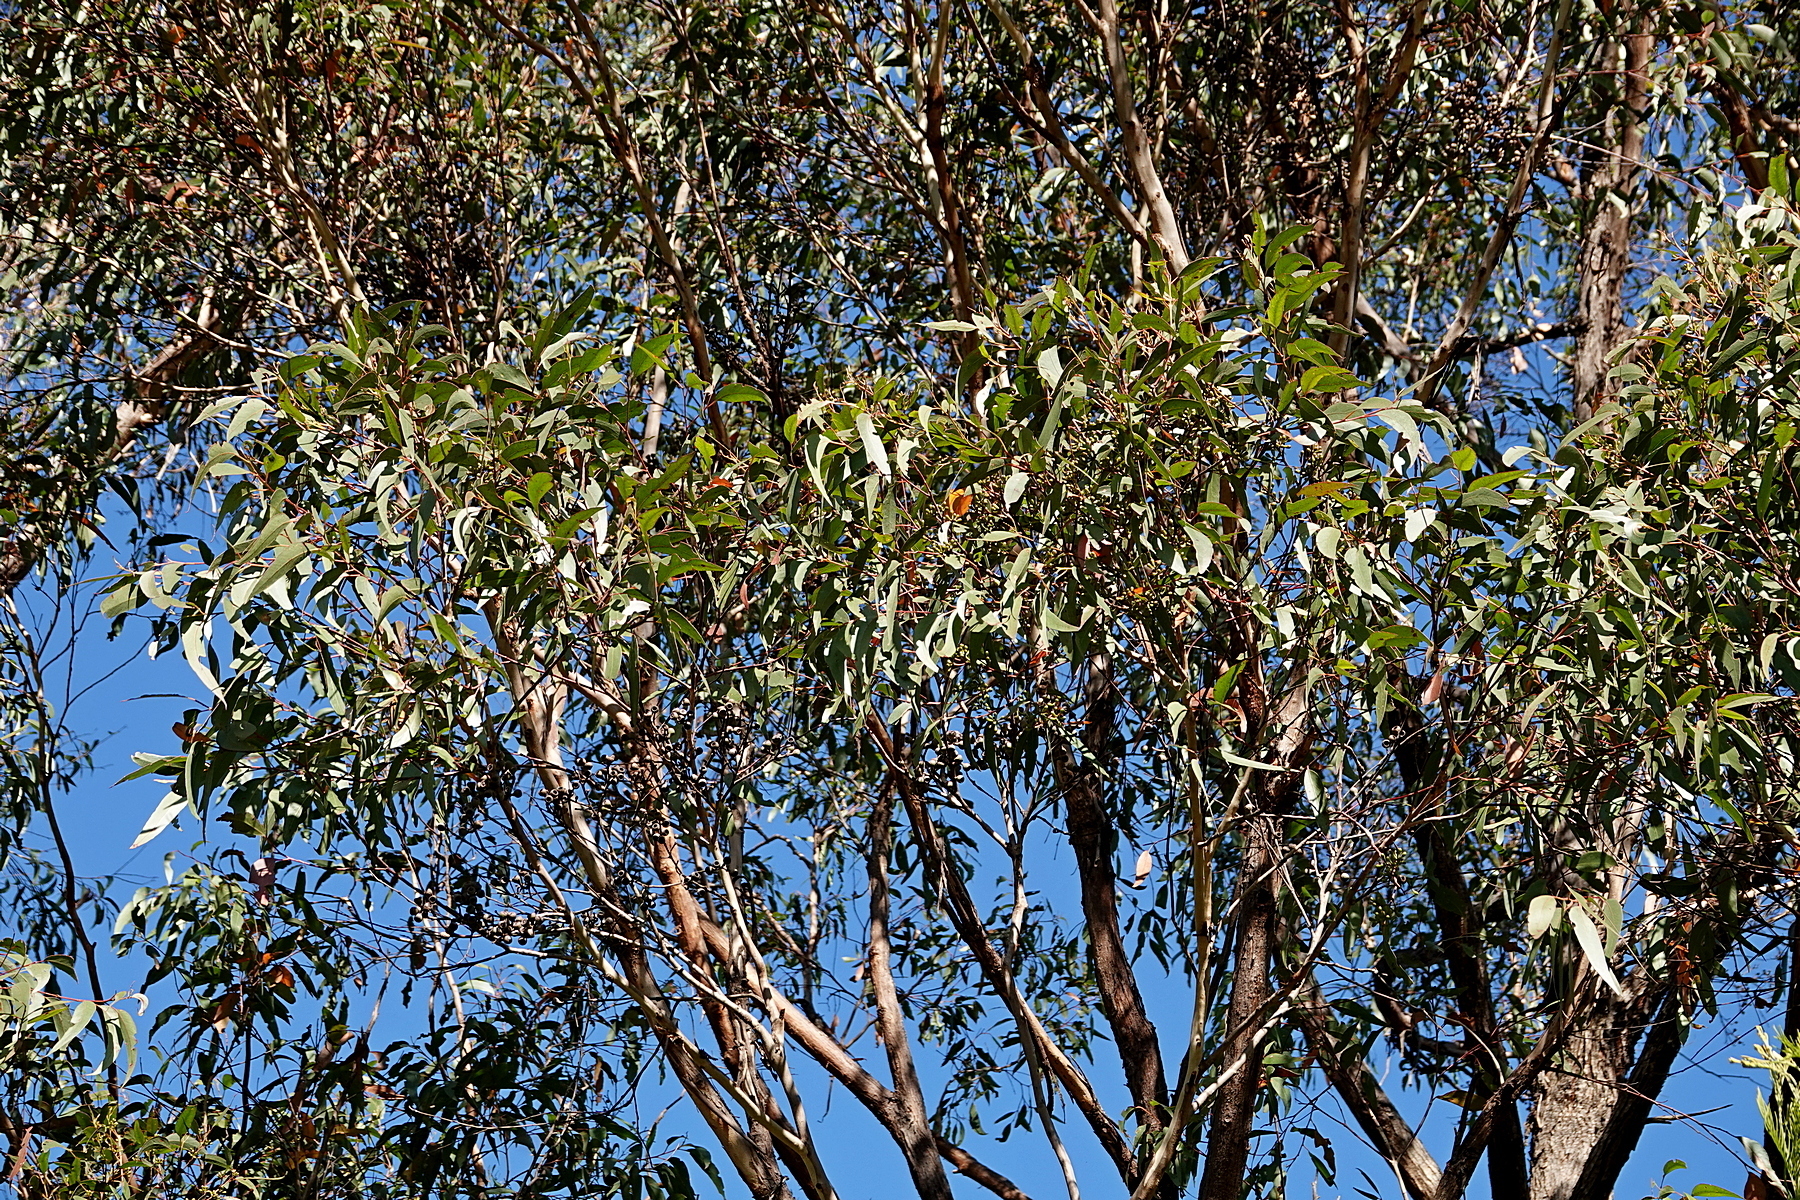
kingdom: Plantae
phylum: Tracheophyta
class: Magnoliopsida
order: Myrtales
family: Myrtaceae
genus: Eucalyptus
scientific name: Eucalyptus muelleriana
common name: Yellow-stringybark
